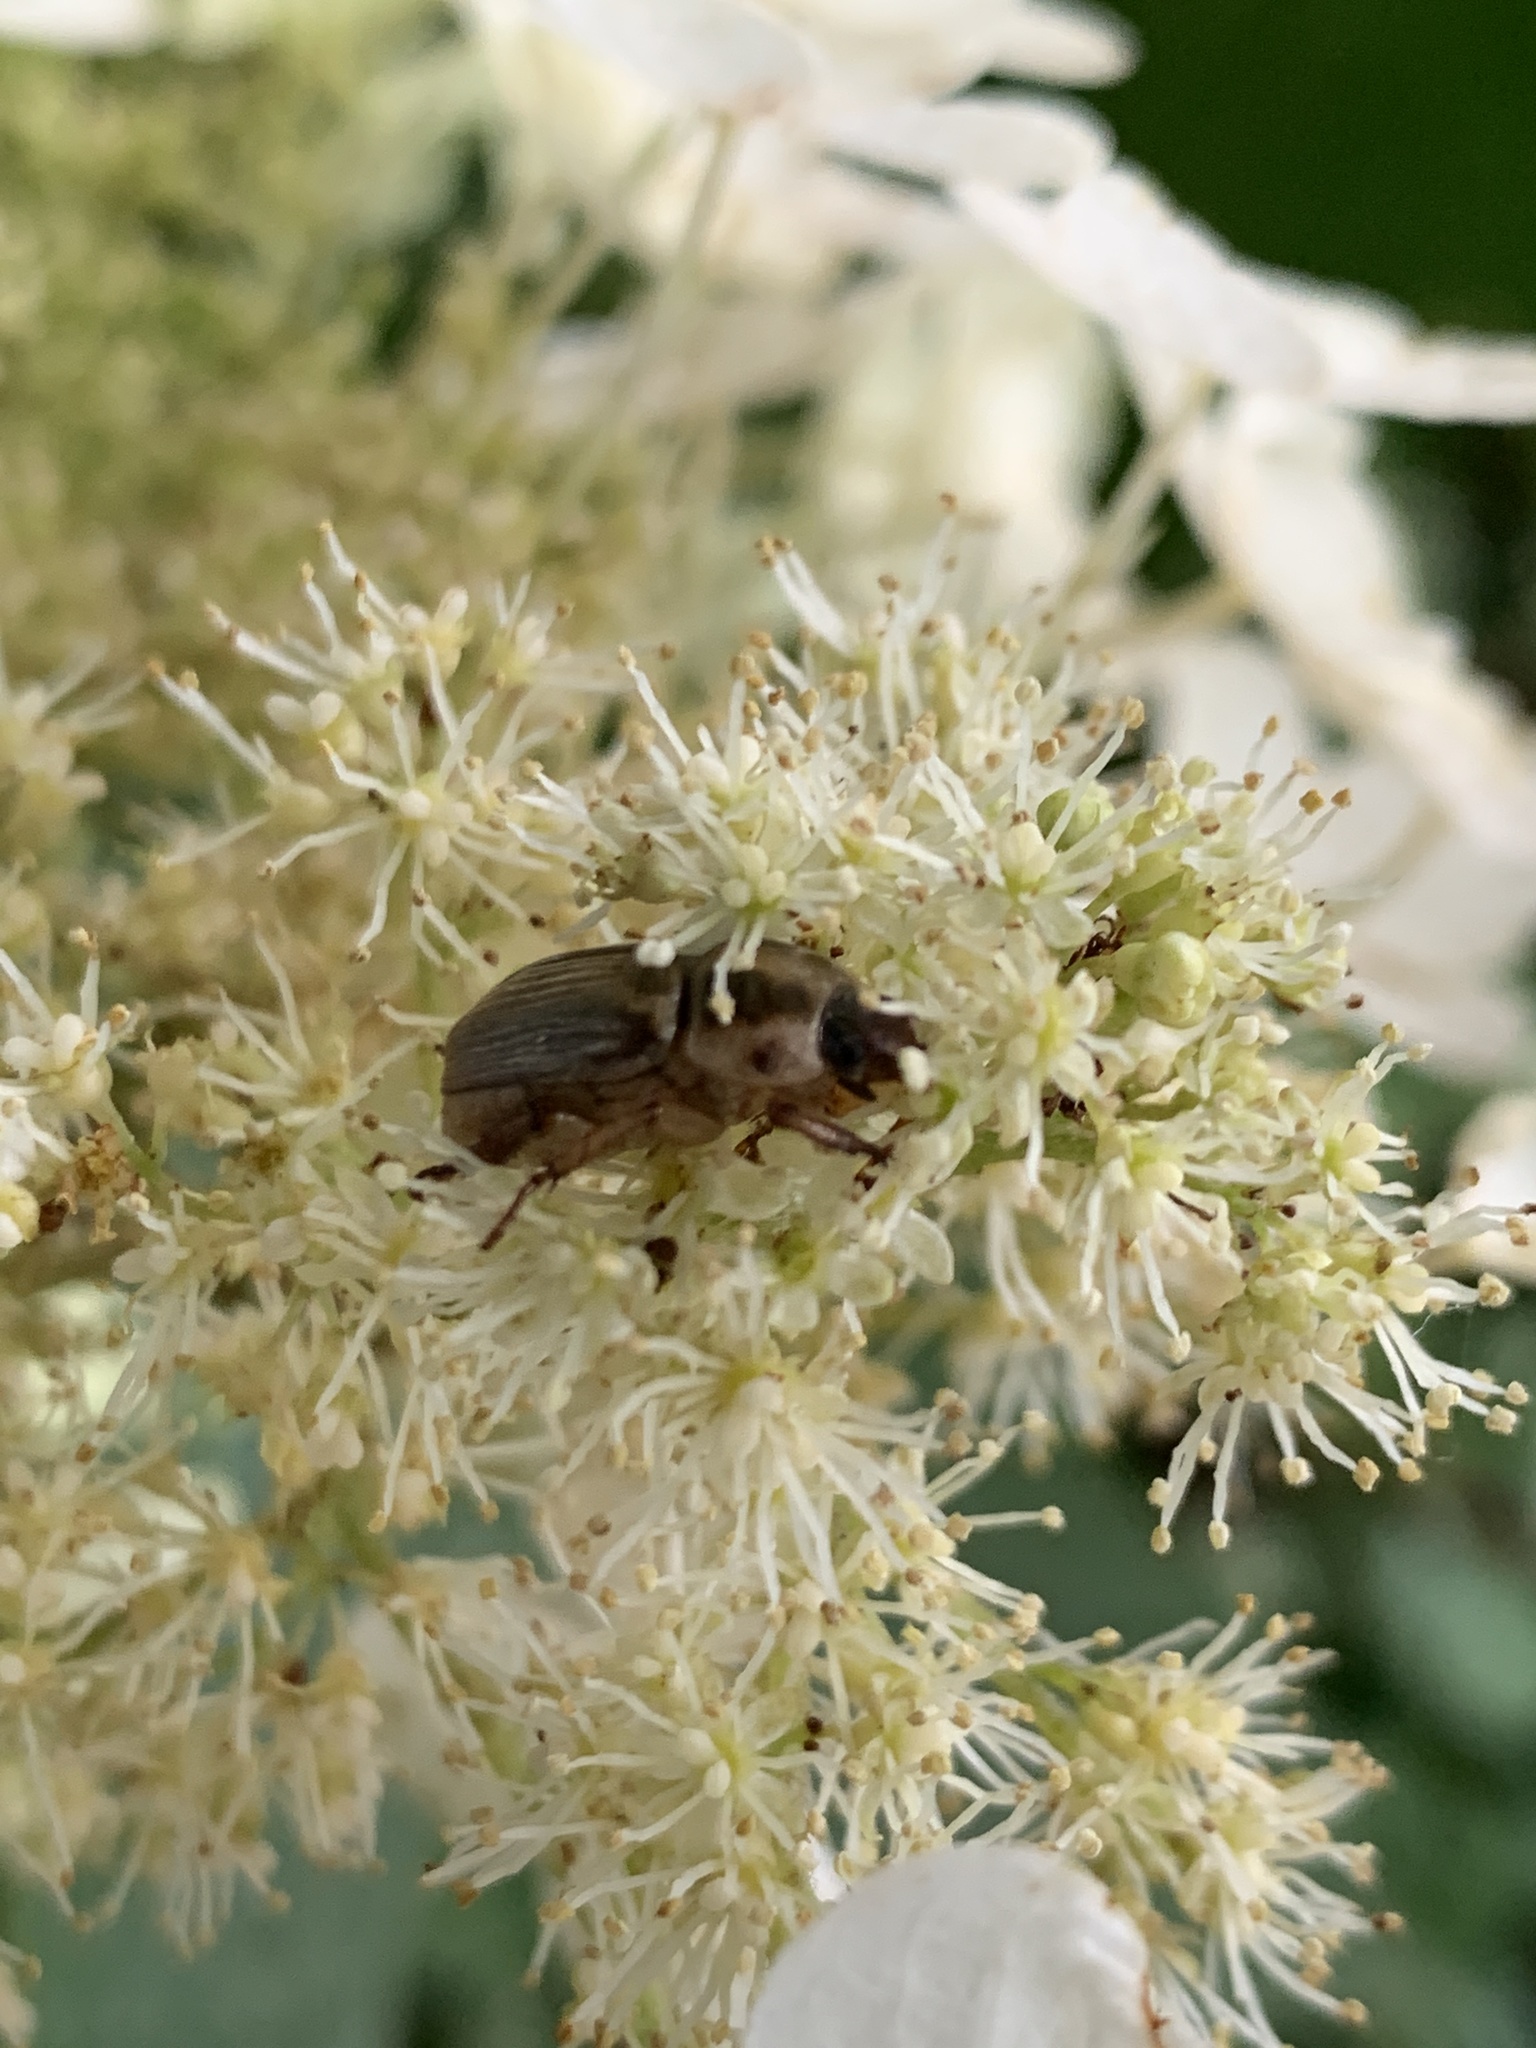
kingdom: Animalia
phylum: Arthropoda
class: Insecta
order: Coleoptera
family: Scarabaeidae
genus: Exomala
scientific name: Exomala orientalis
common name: Oriental beetle
